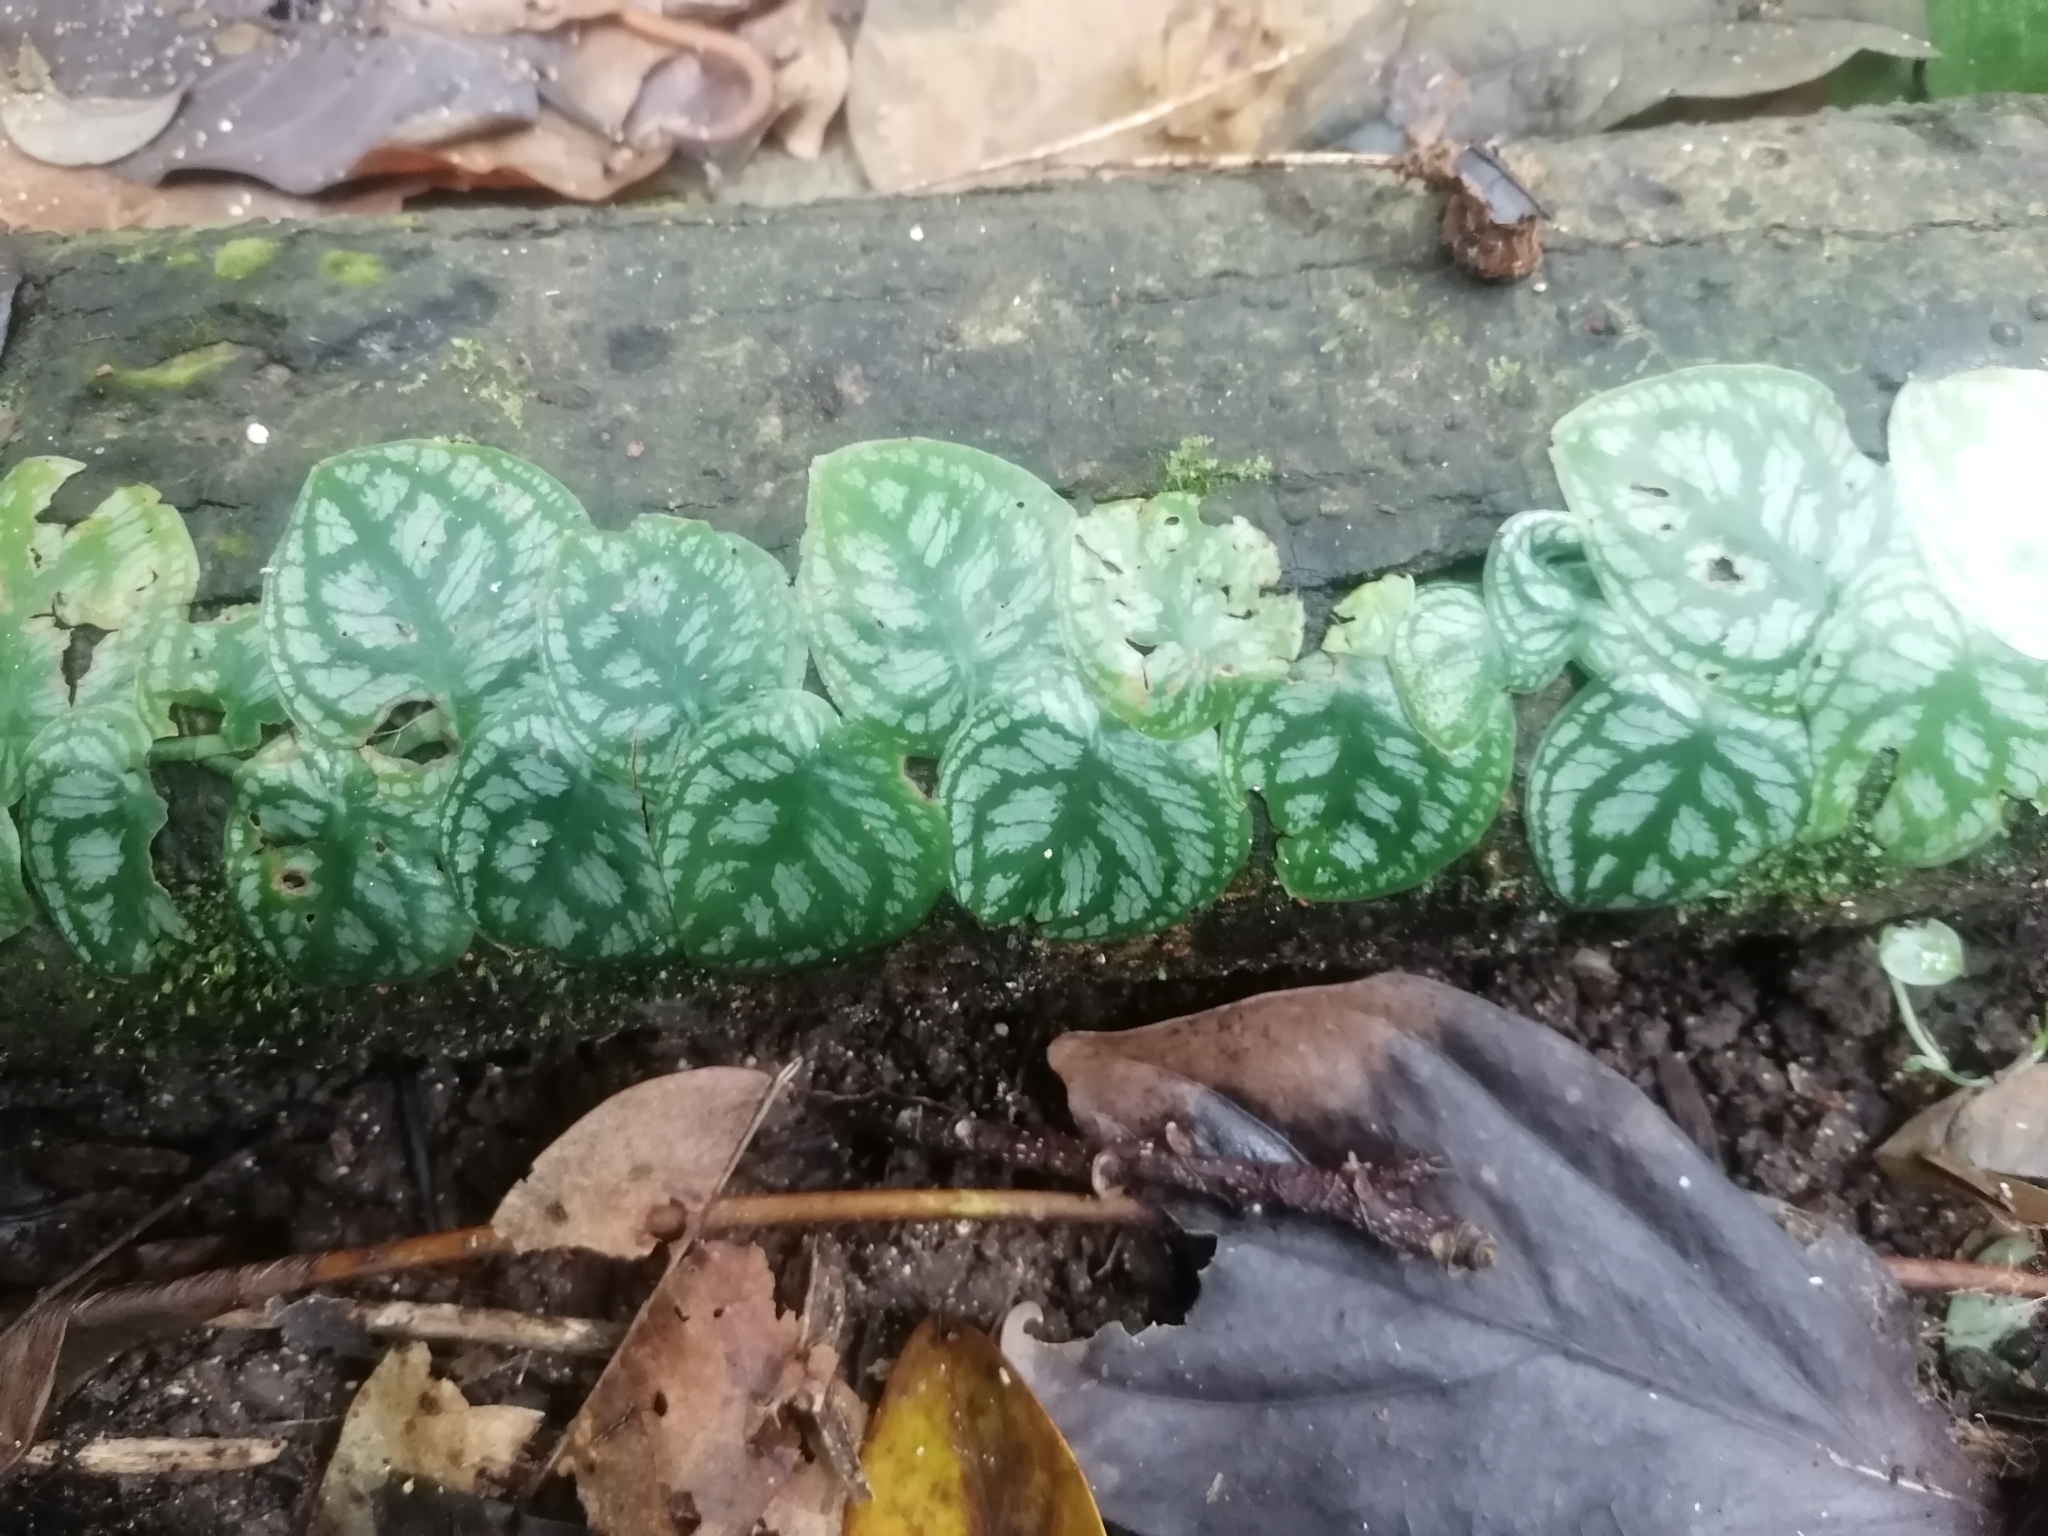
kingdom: Plantae
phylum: Tracheophyta
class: Liliopsida
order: Alismatales
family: Araceae
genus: Monstera
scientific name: Monstera tuberculata
